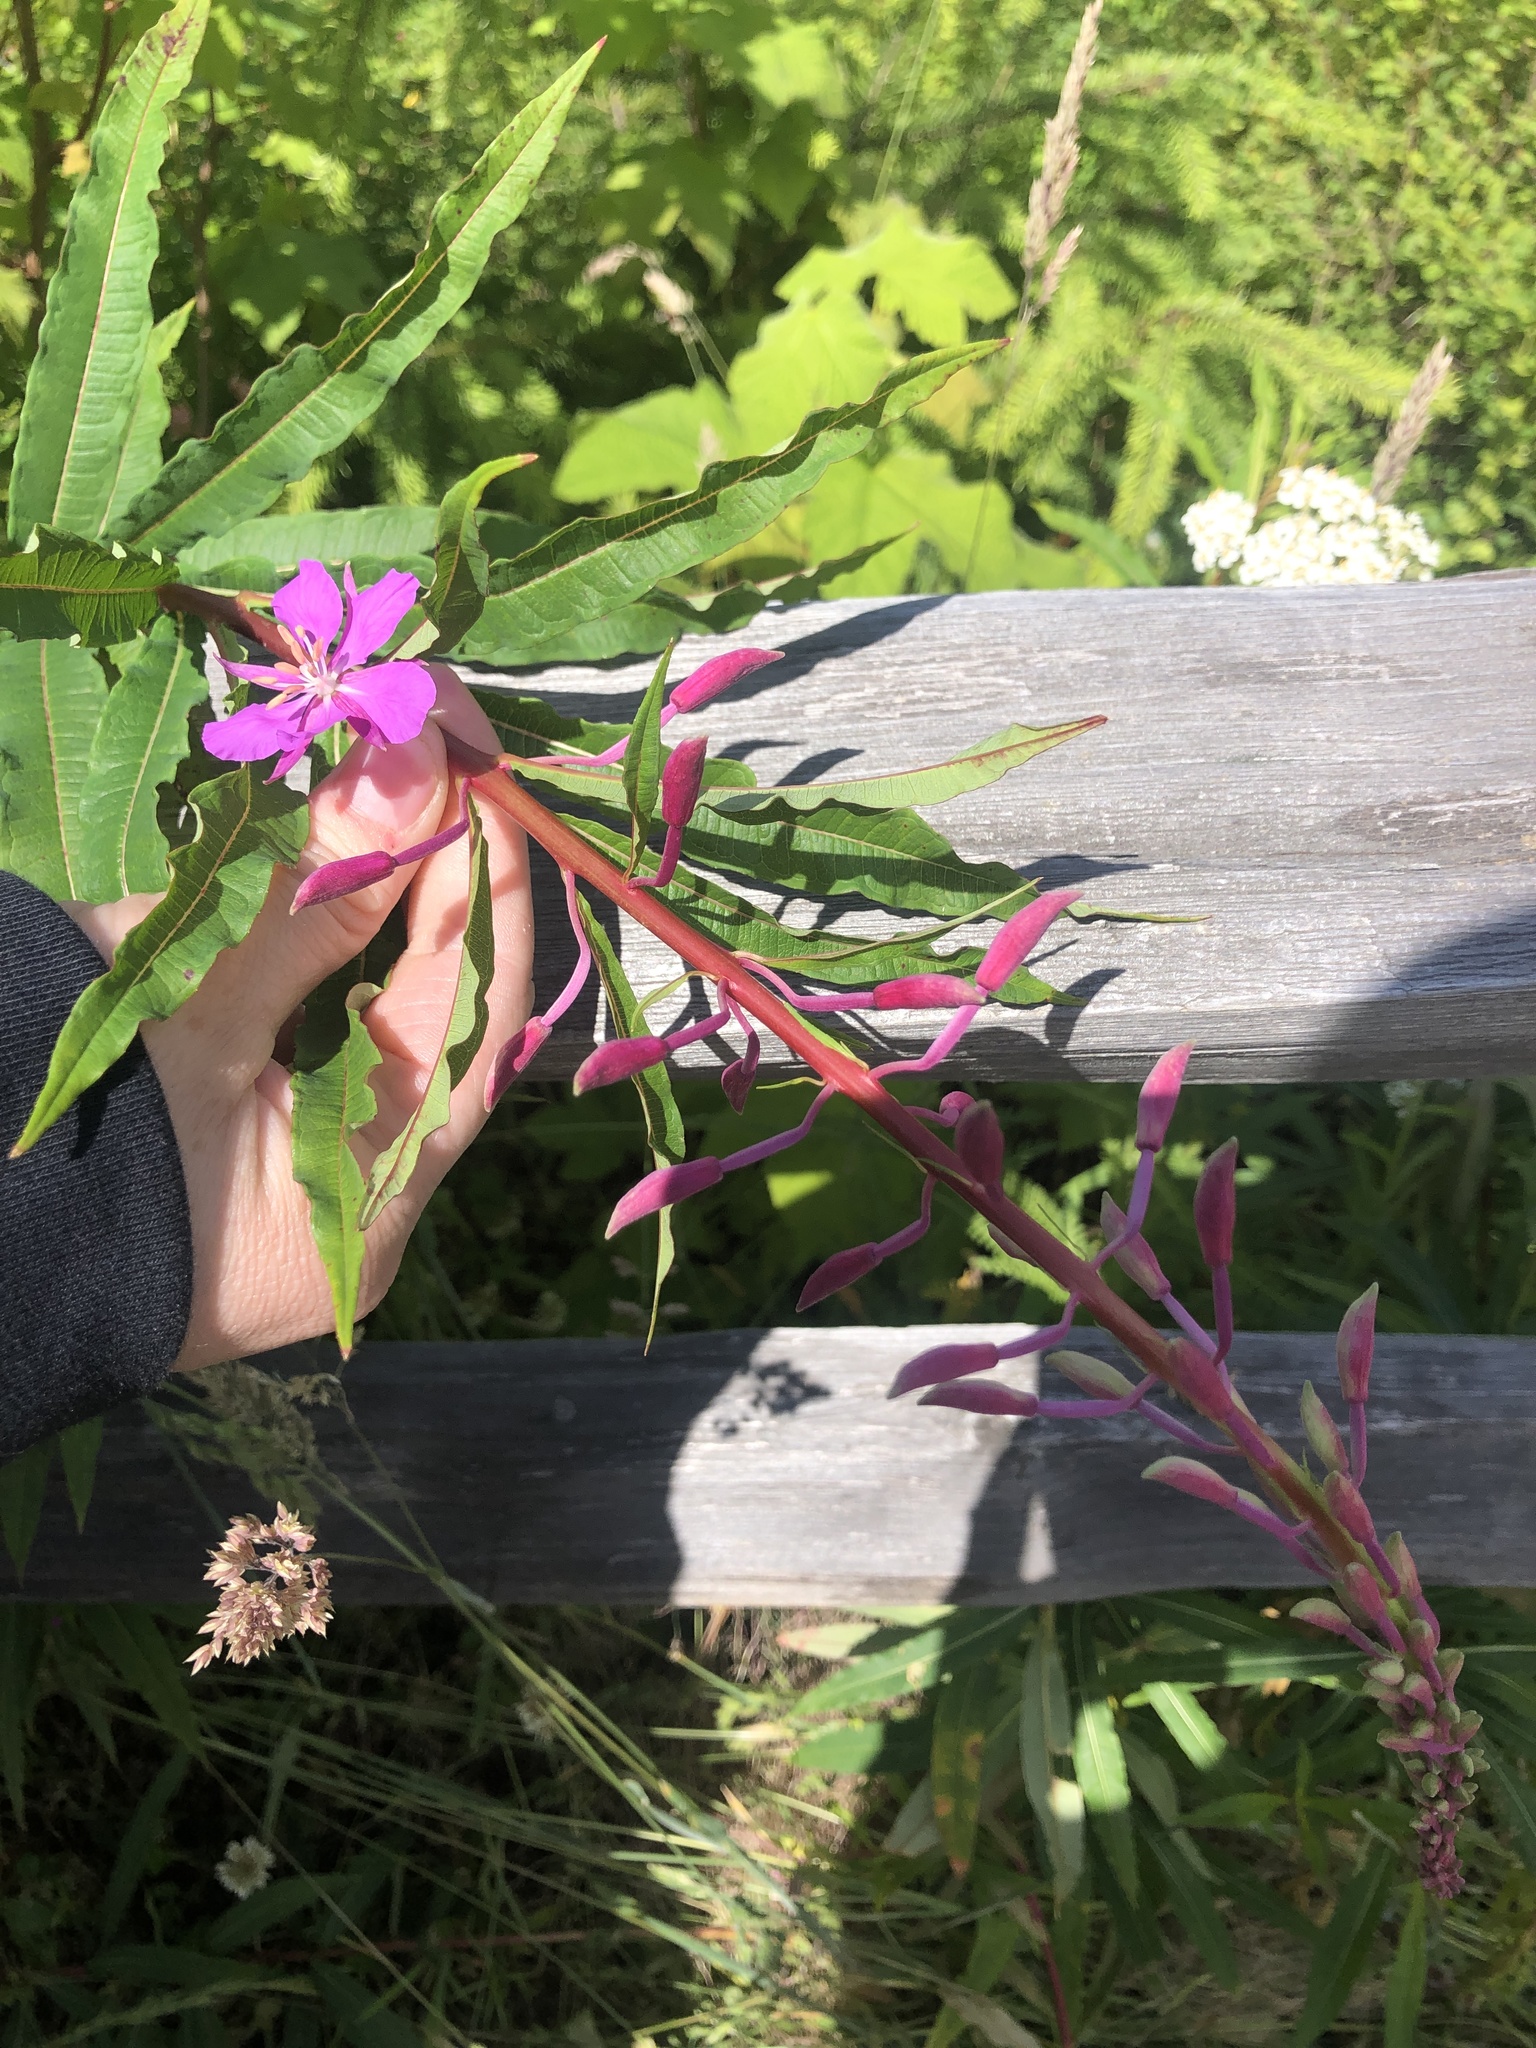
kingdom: Plantae
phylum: Tracheophyta
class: Magnoliopsida
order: Myrtales
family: Onagraceae
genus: Chamaenerion
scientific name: Chamaenerion angustifolium
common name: Fireweed
